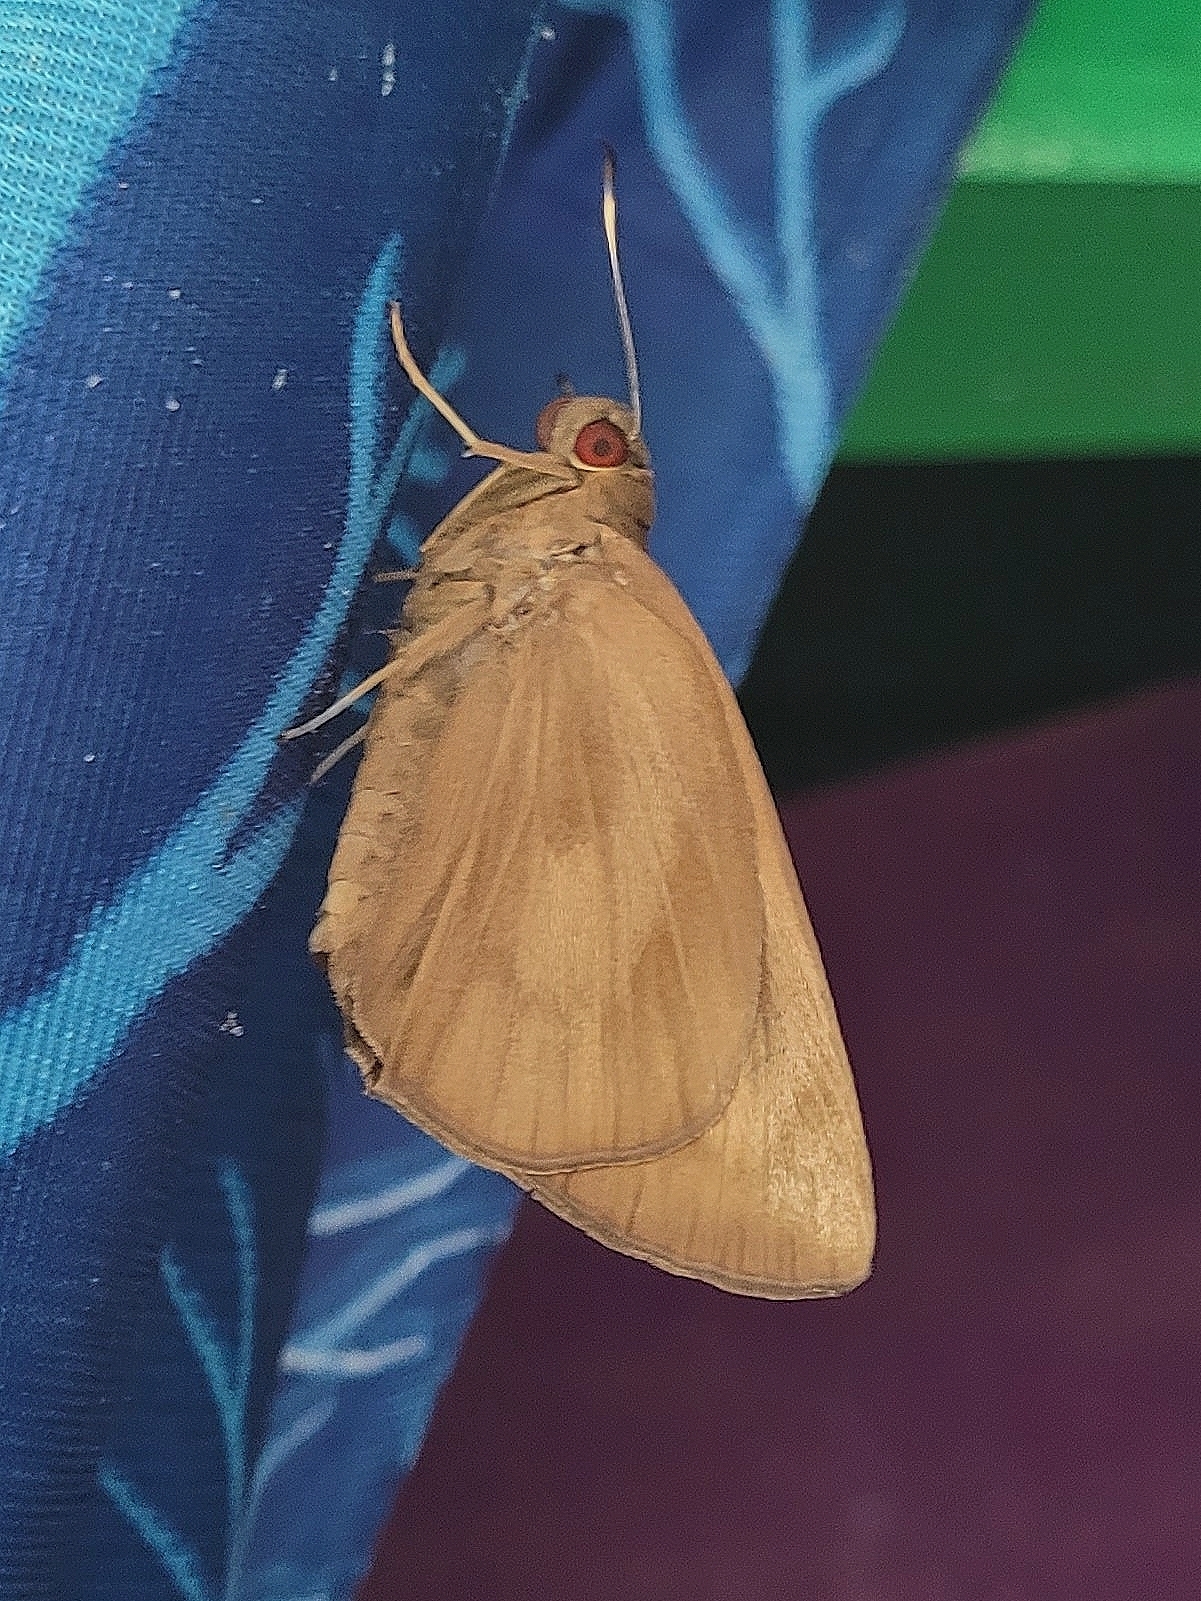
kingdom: Animalia
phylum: Arthropoda
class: Insecta
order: Lepidoptera
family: Hesperiidae
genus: Erionota
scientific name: Erionota thrax
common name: Banana skipper
